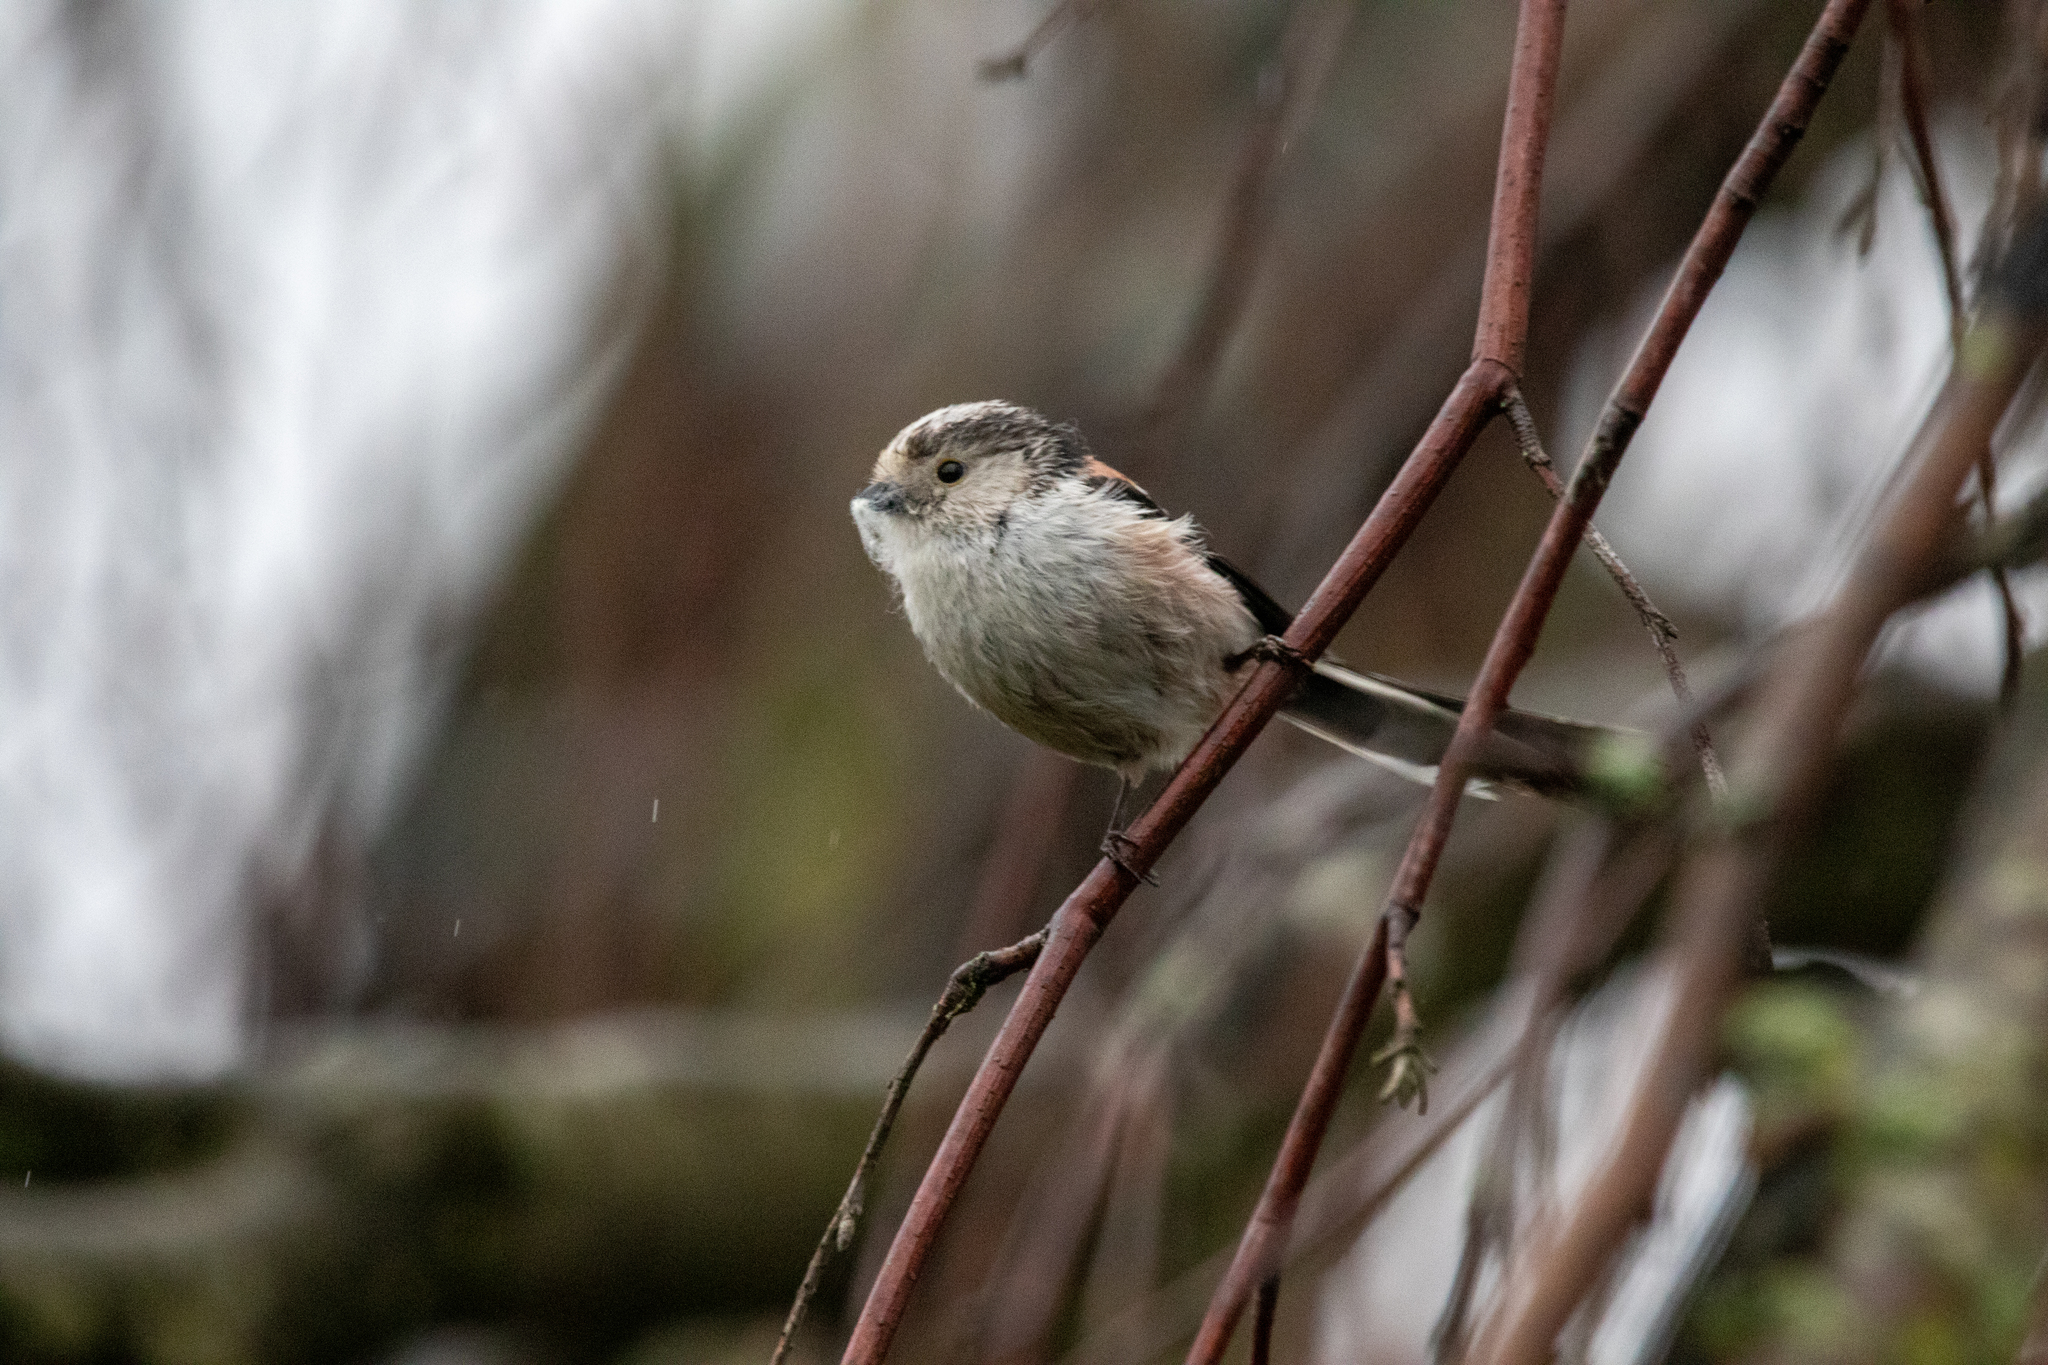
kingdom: Animalia
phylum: Chordata
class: Aves
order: Passeriformes
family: Aegithalidae
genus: Aegithalos
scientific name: Aegithalos caudatus
